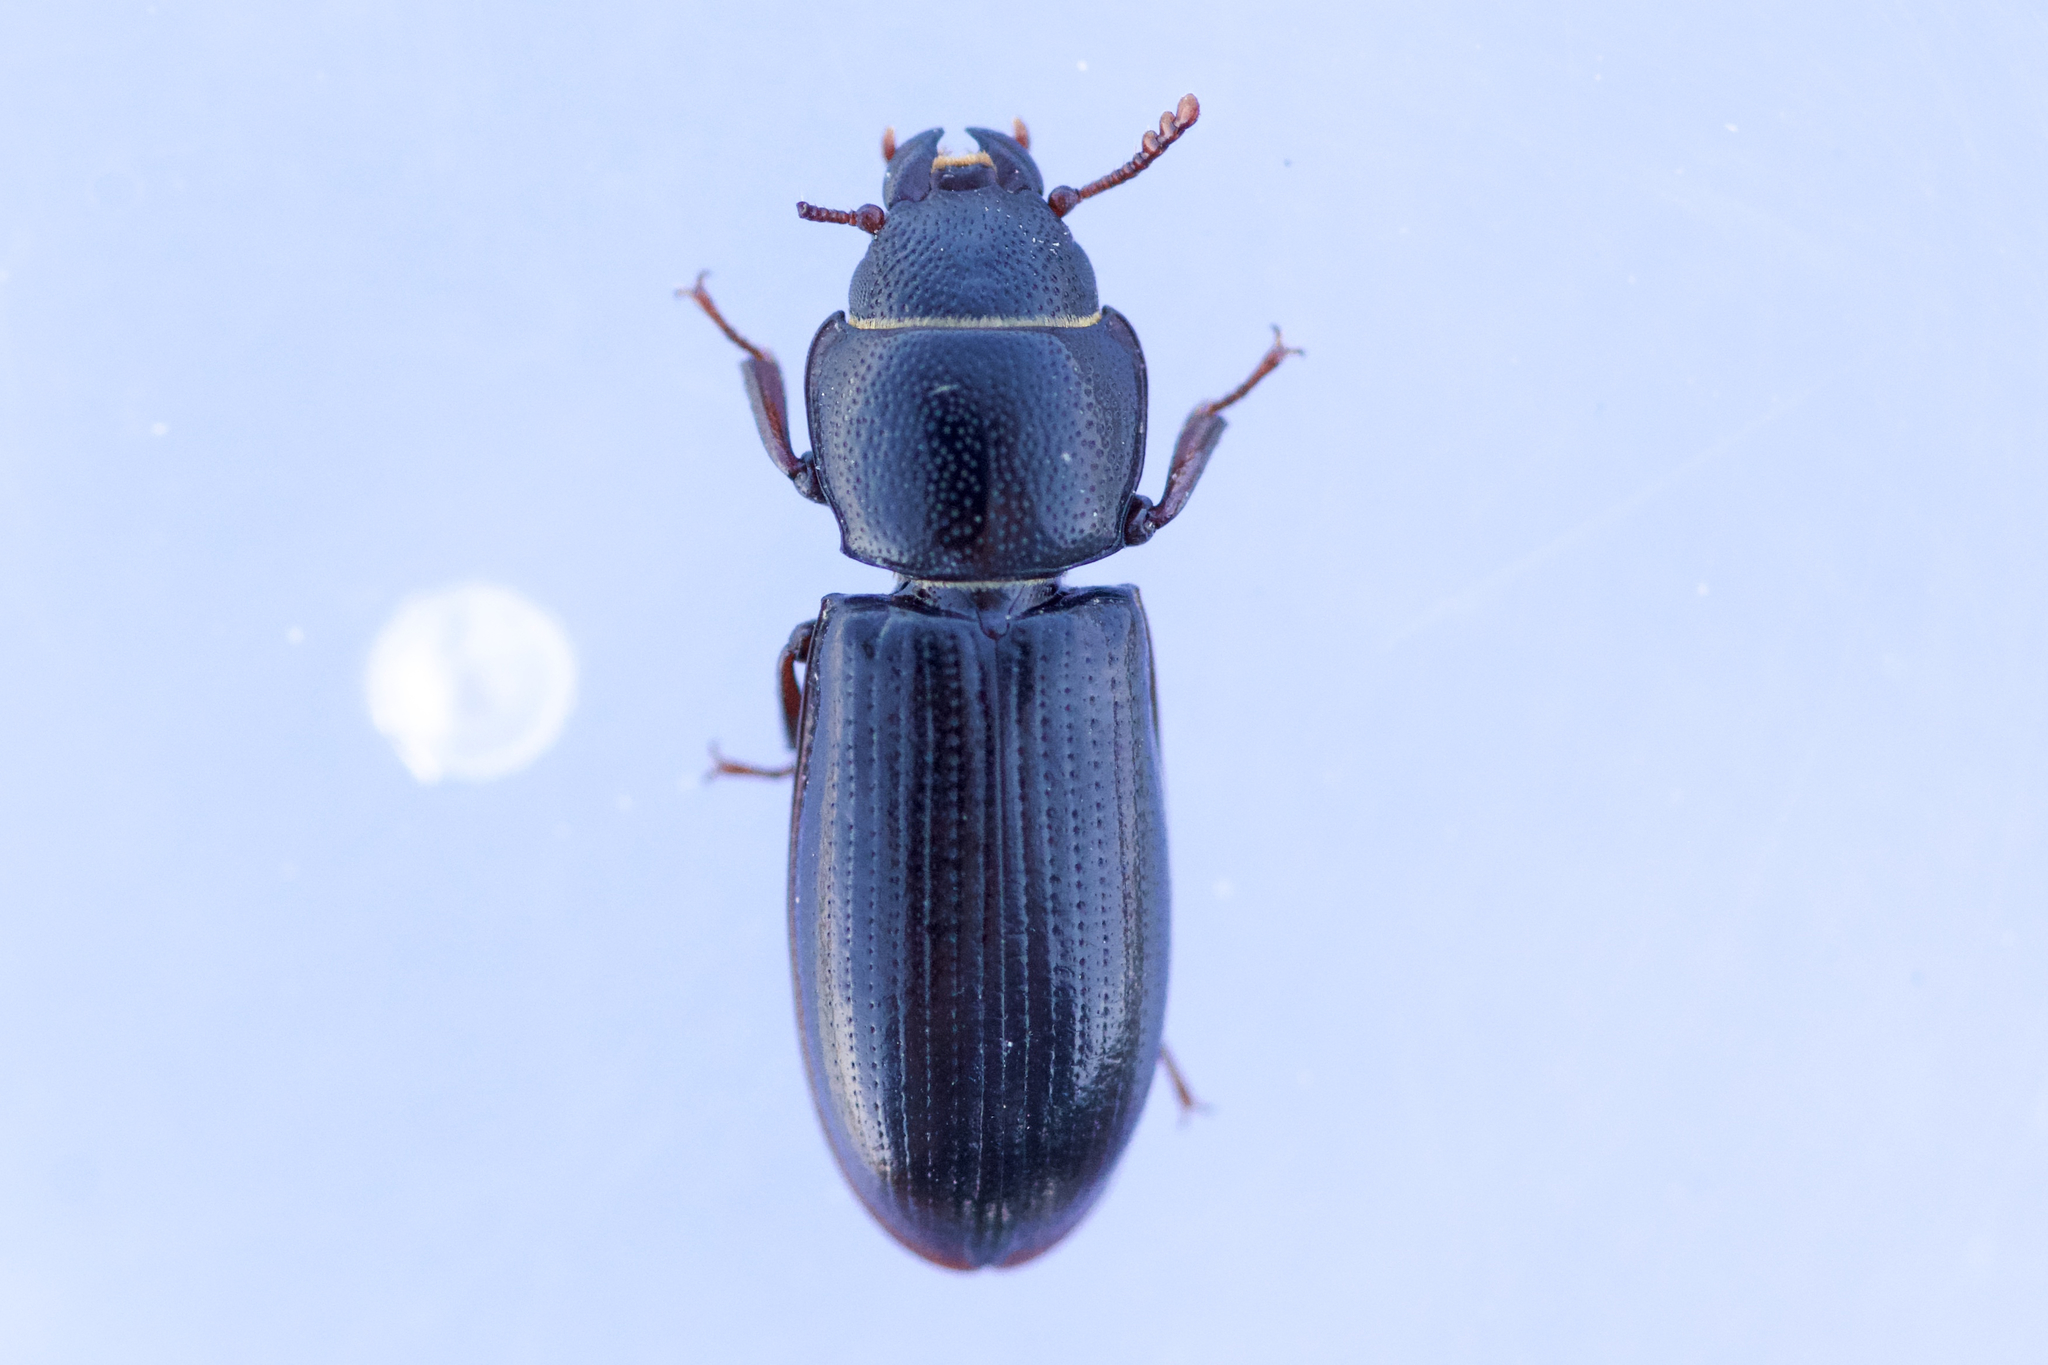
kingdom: Animalia
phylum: Arthropoda
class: Insecta
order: Coleoptera
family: Trogossitidae
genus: Tenebroides
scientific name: Tenebroides corticalis
